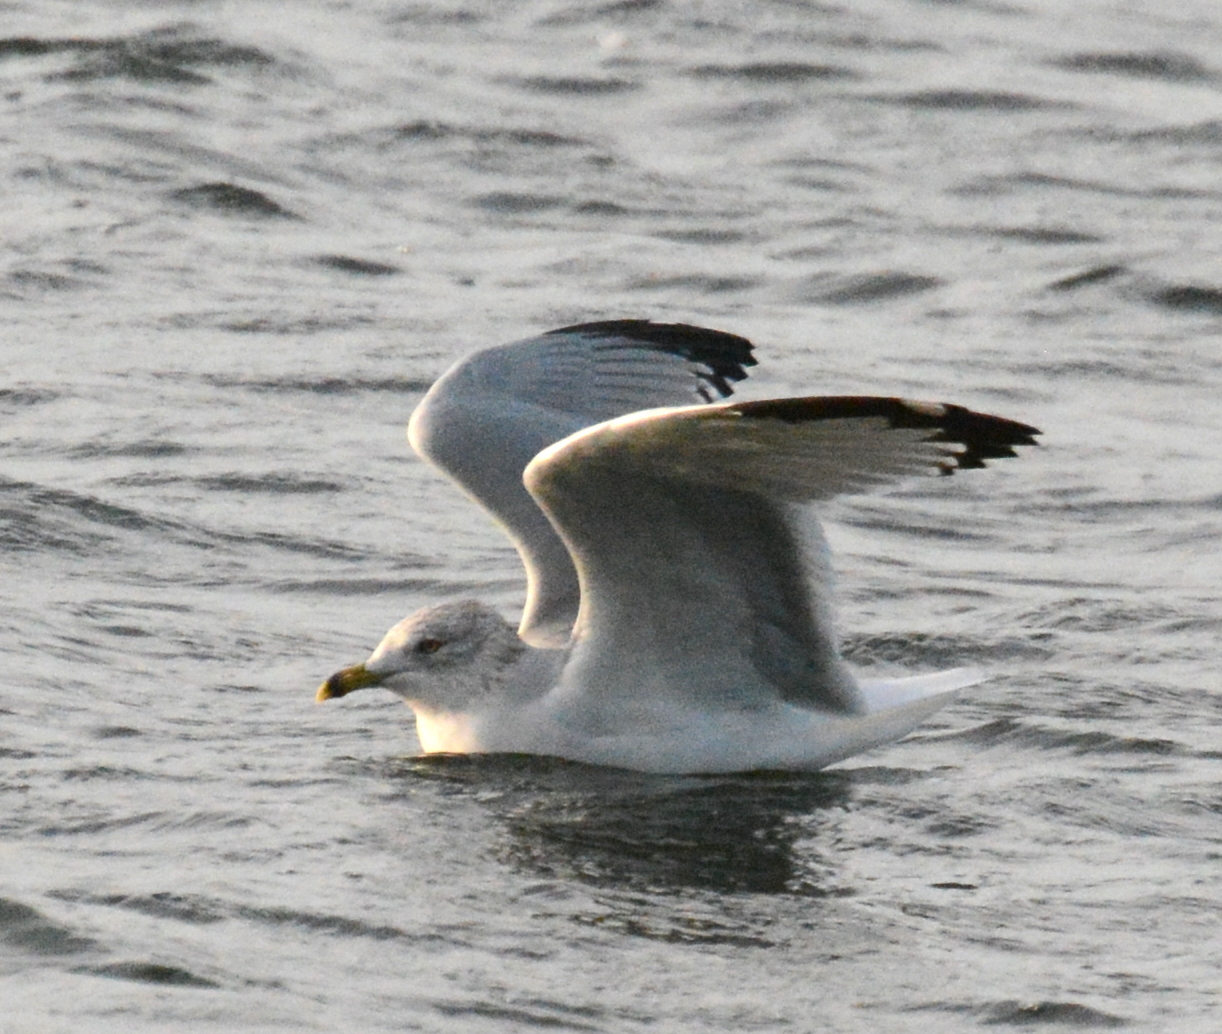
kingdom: Animalia
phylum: Chordata
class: Aves
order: Charadriiformes
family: Laridae
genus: Larus
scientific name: Larus delawarensis
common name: Ring-billed gull
